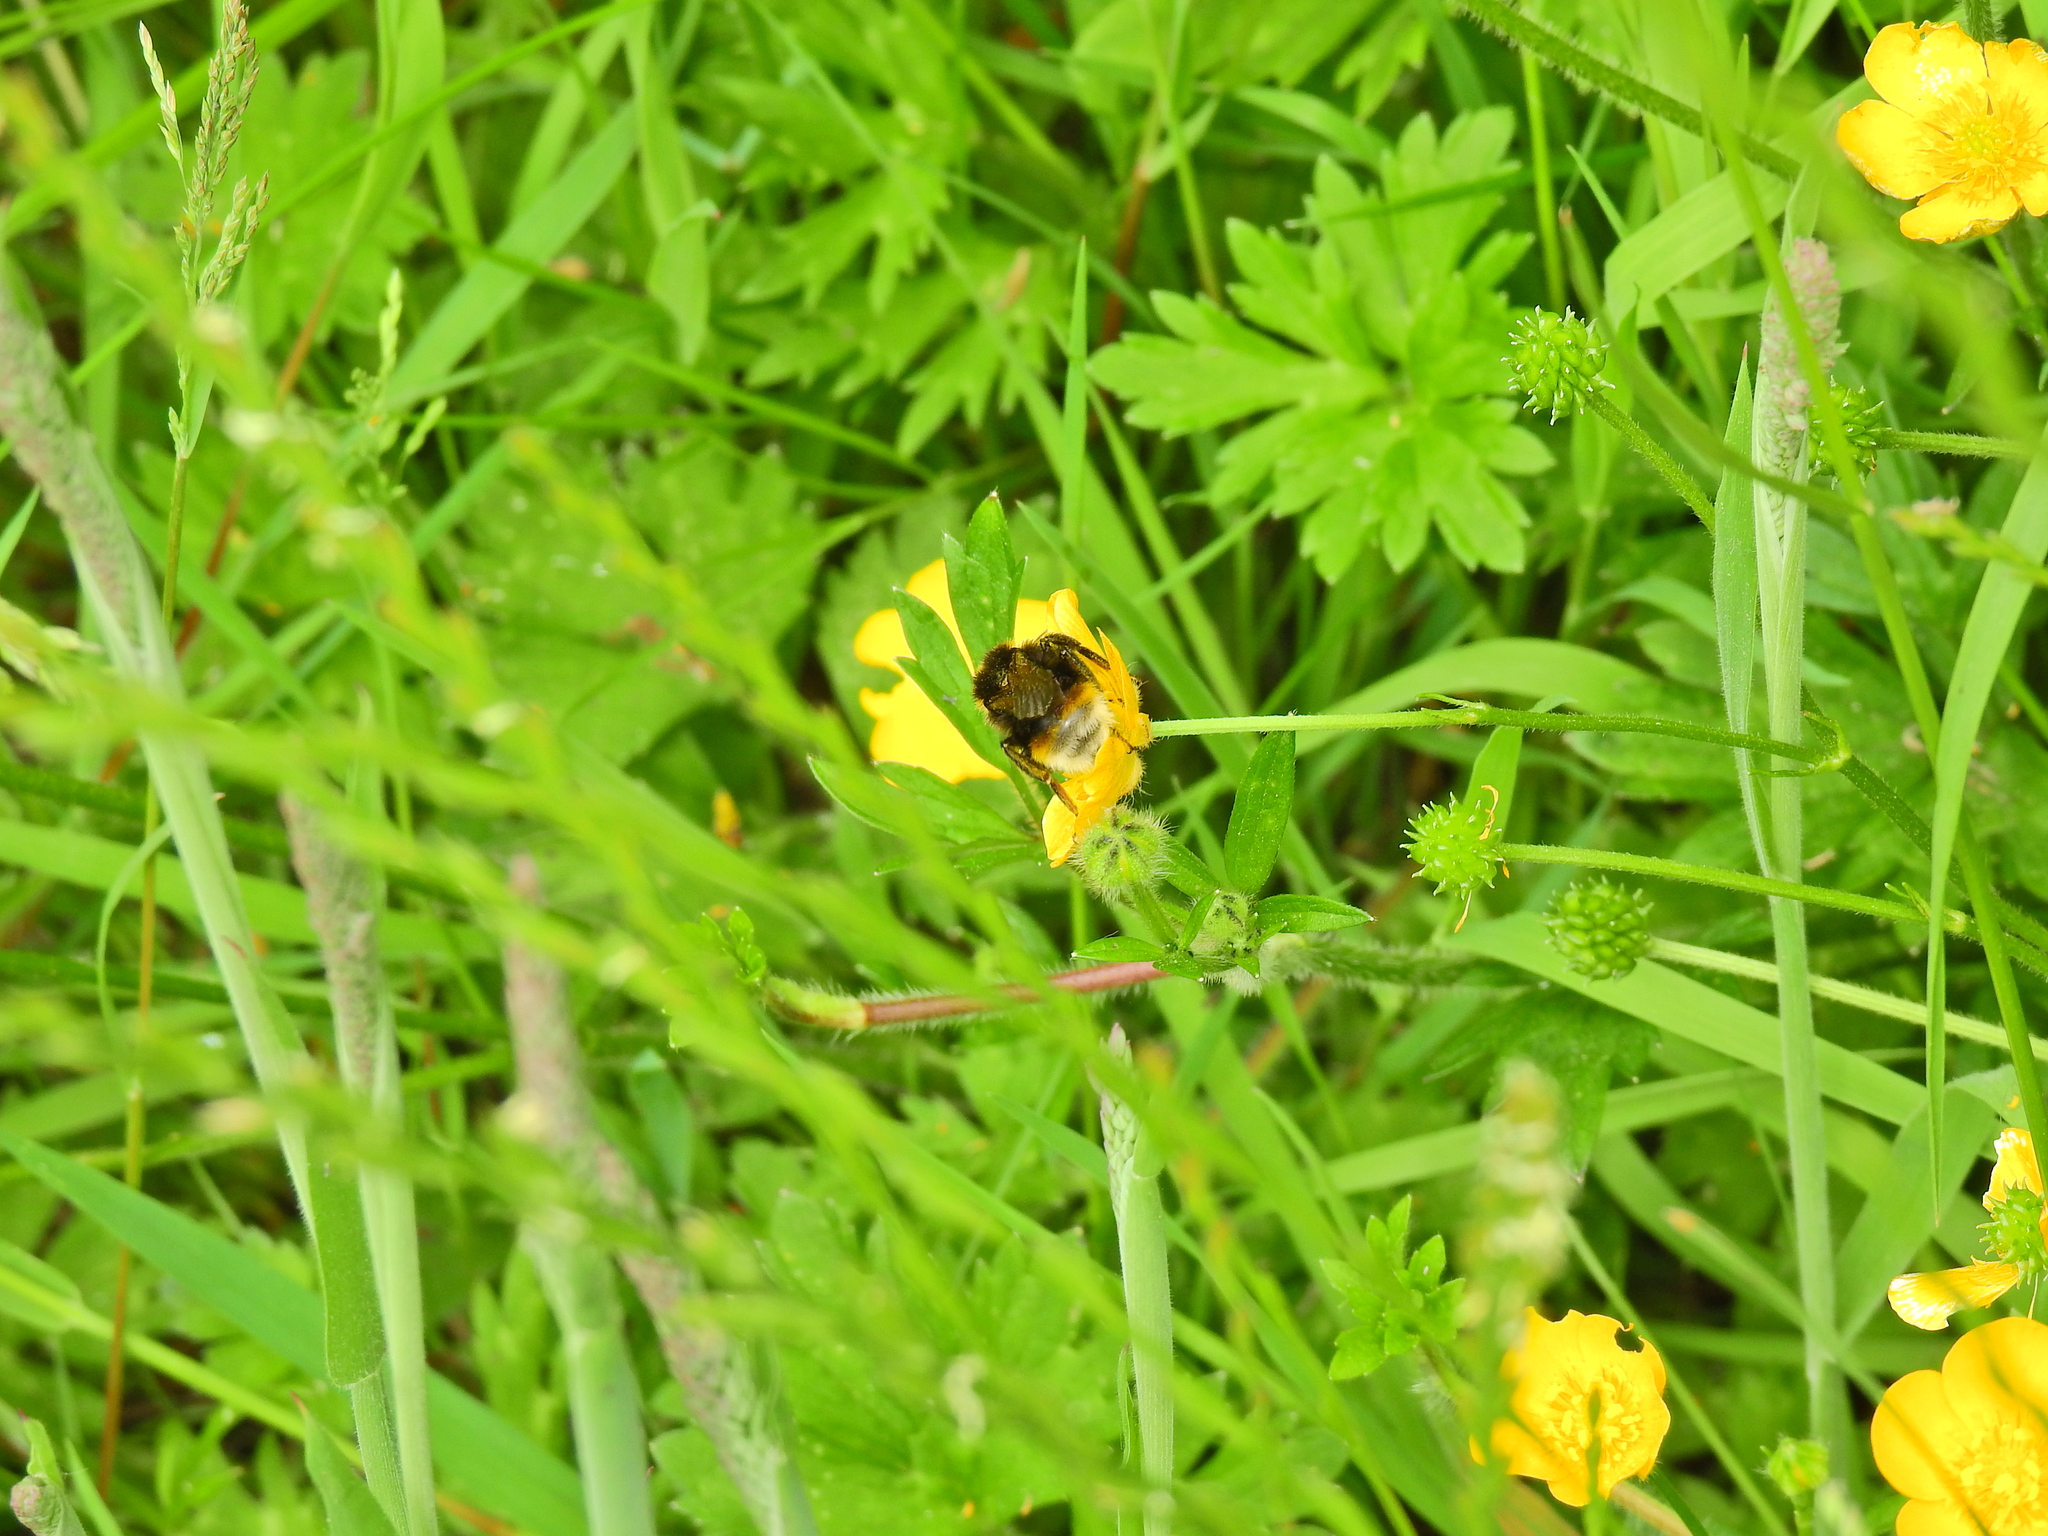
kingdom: Animalia
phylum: Arthropoda
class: Insecta
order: Hymenoptera
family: Apidae
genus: Bombus
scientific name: Bombus vestalis
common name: Vestal cuckoo bee
